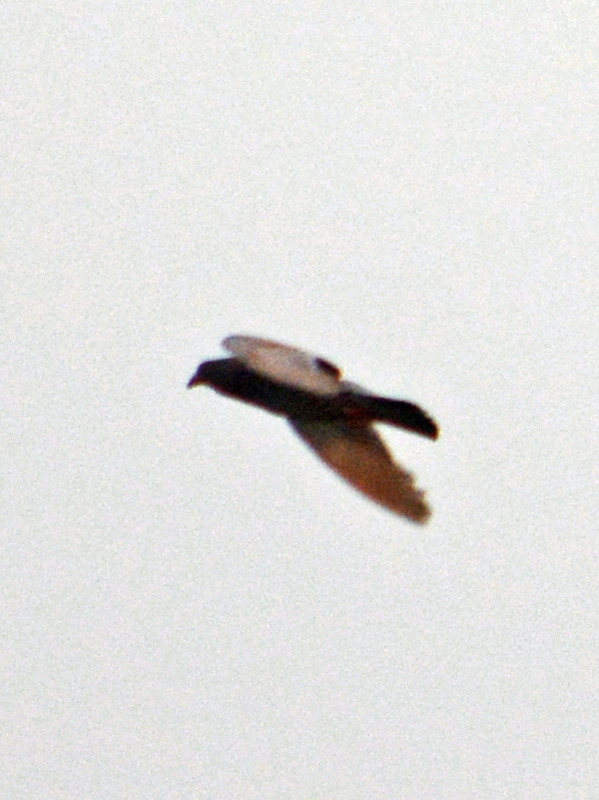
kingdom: Animalia
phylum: Chordata
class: Aves
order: Columbiformes
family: Columbidae
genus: Columba
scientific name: Columba livia
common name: Rock pigeon
